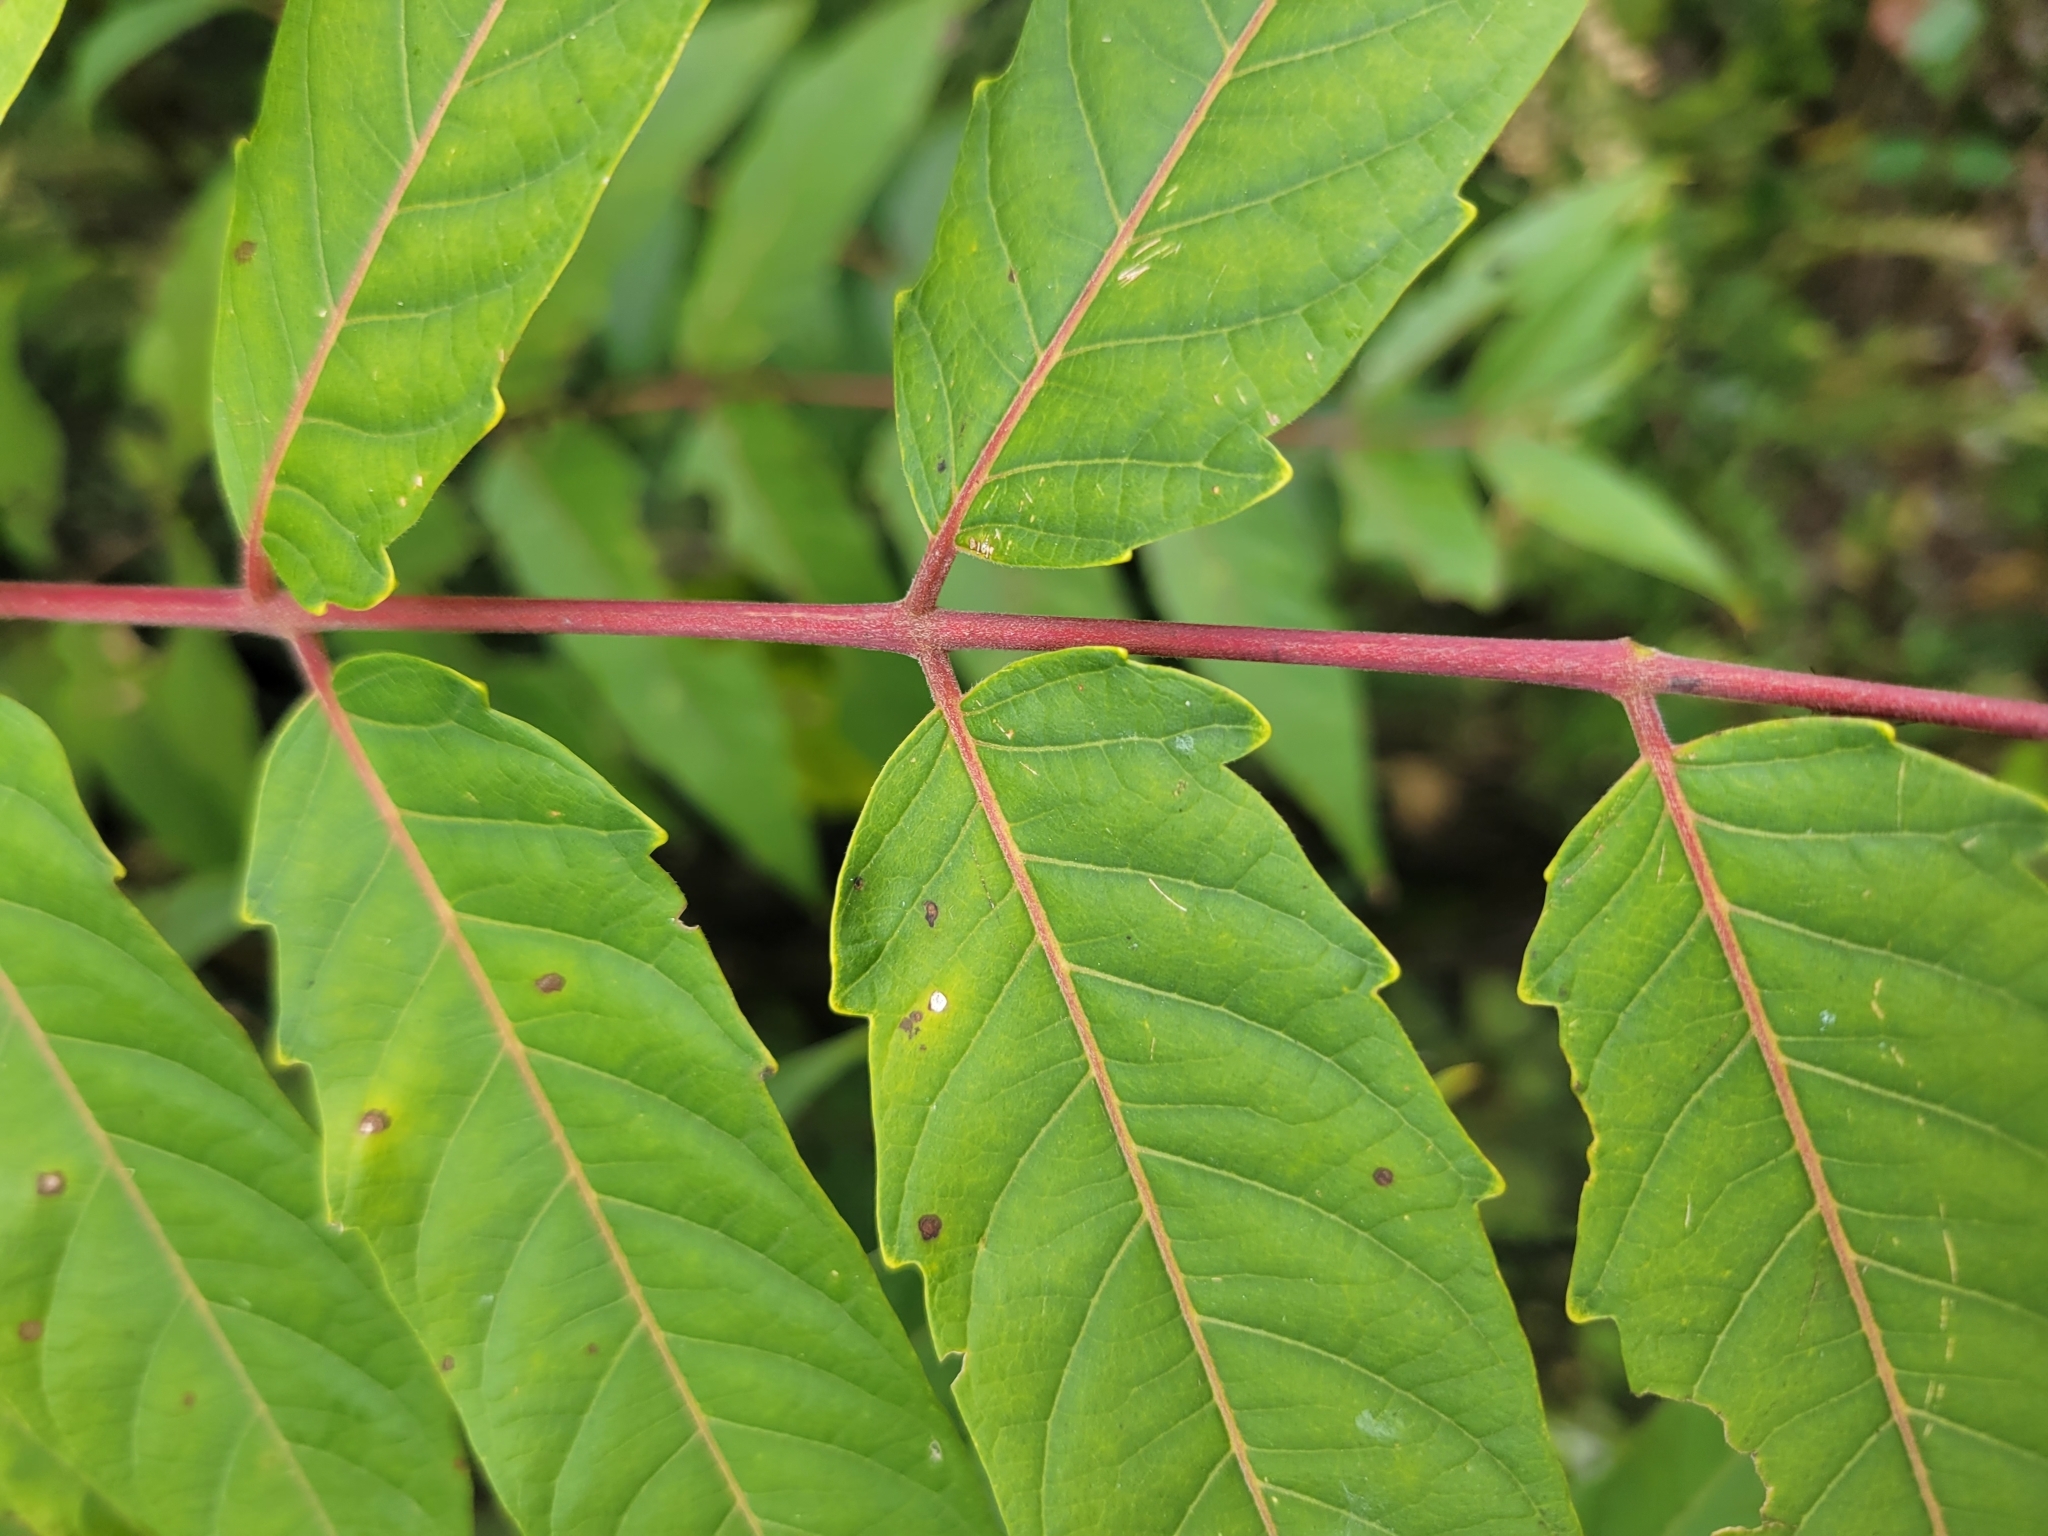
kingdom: Plantae
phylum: Tracheophyta
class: Magnoliopsida
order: Sapindales
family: Simaroubaceae
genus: Ailanthus
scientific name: Ailanthus altissima
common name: Tree-of-heaven
